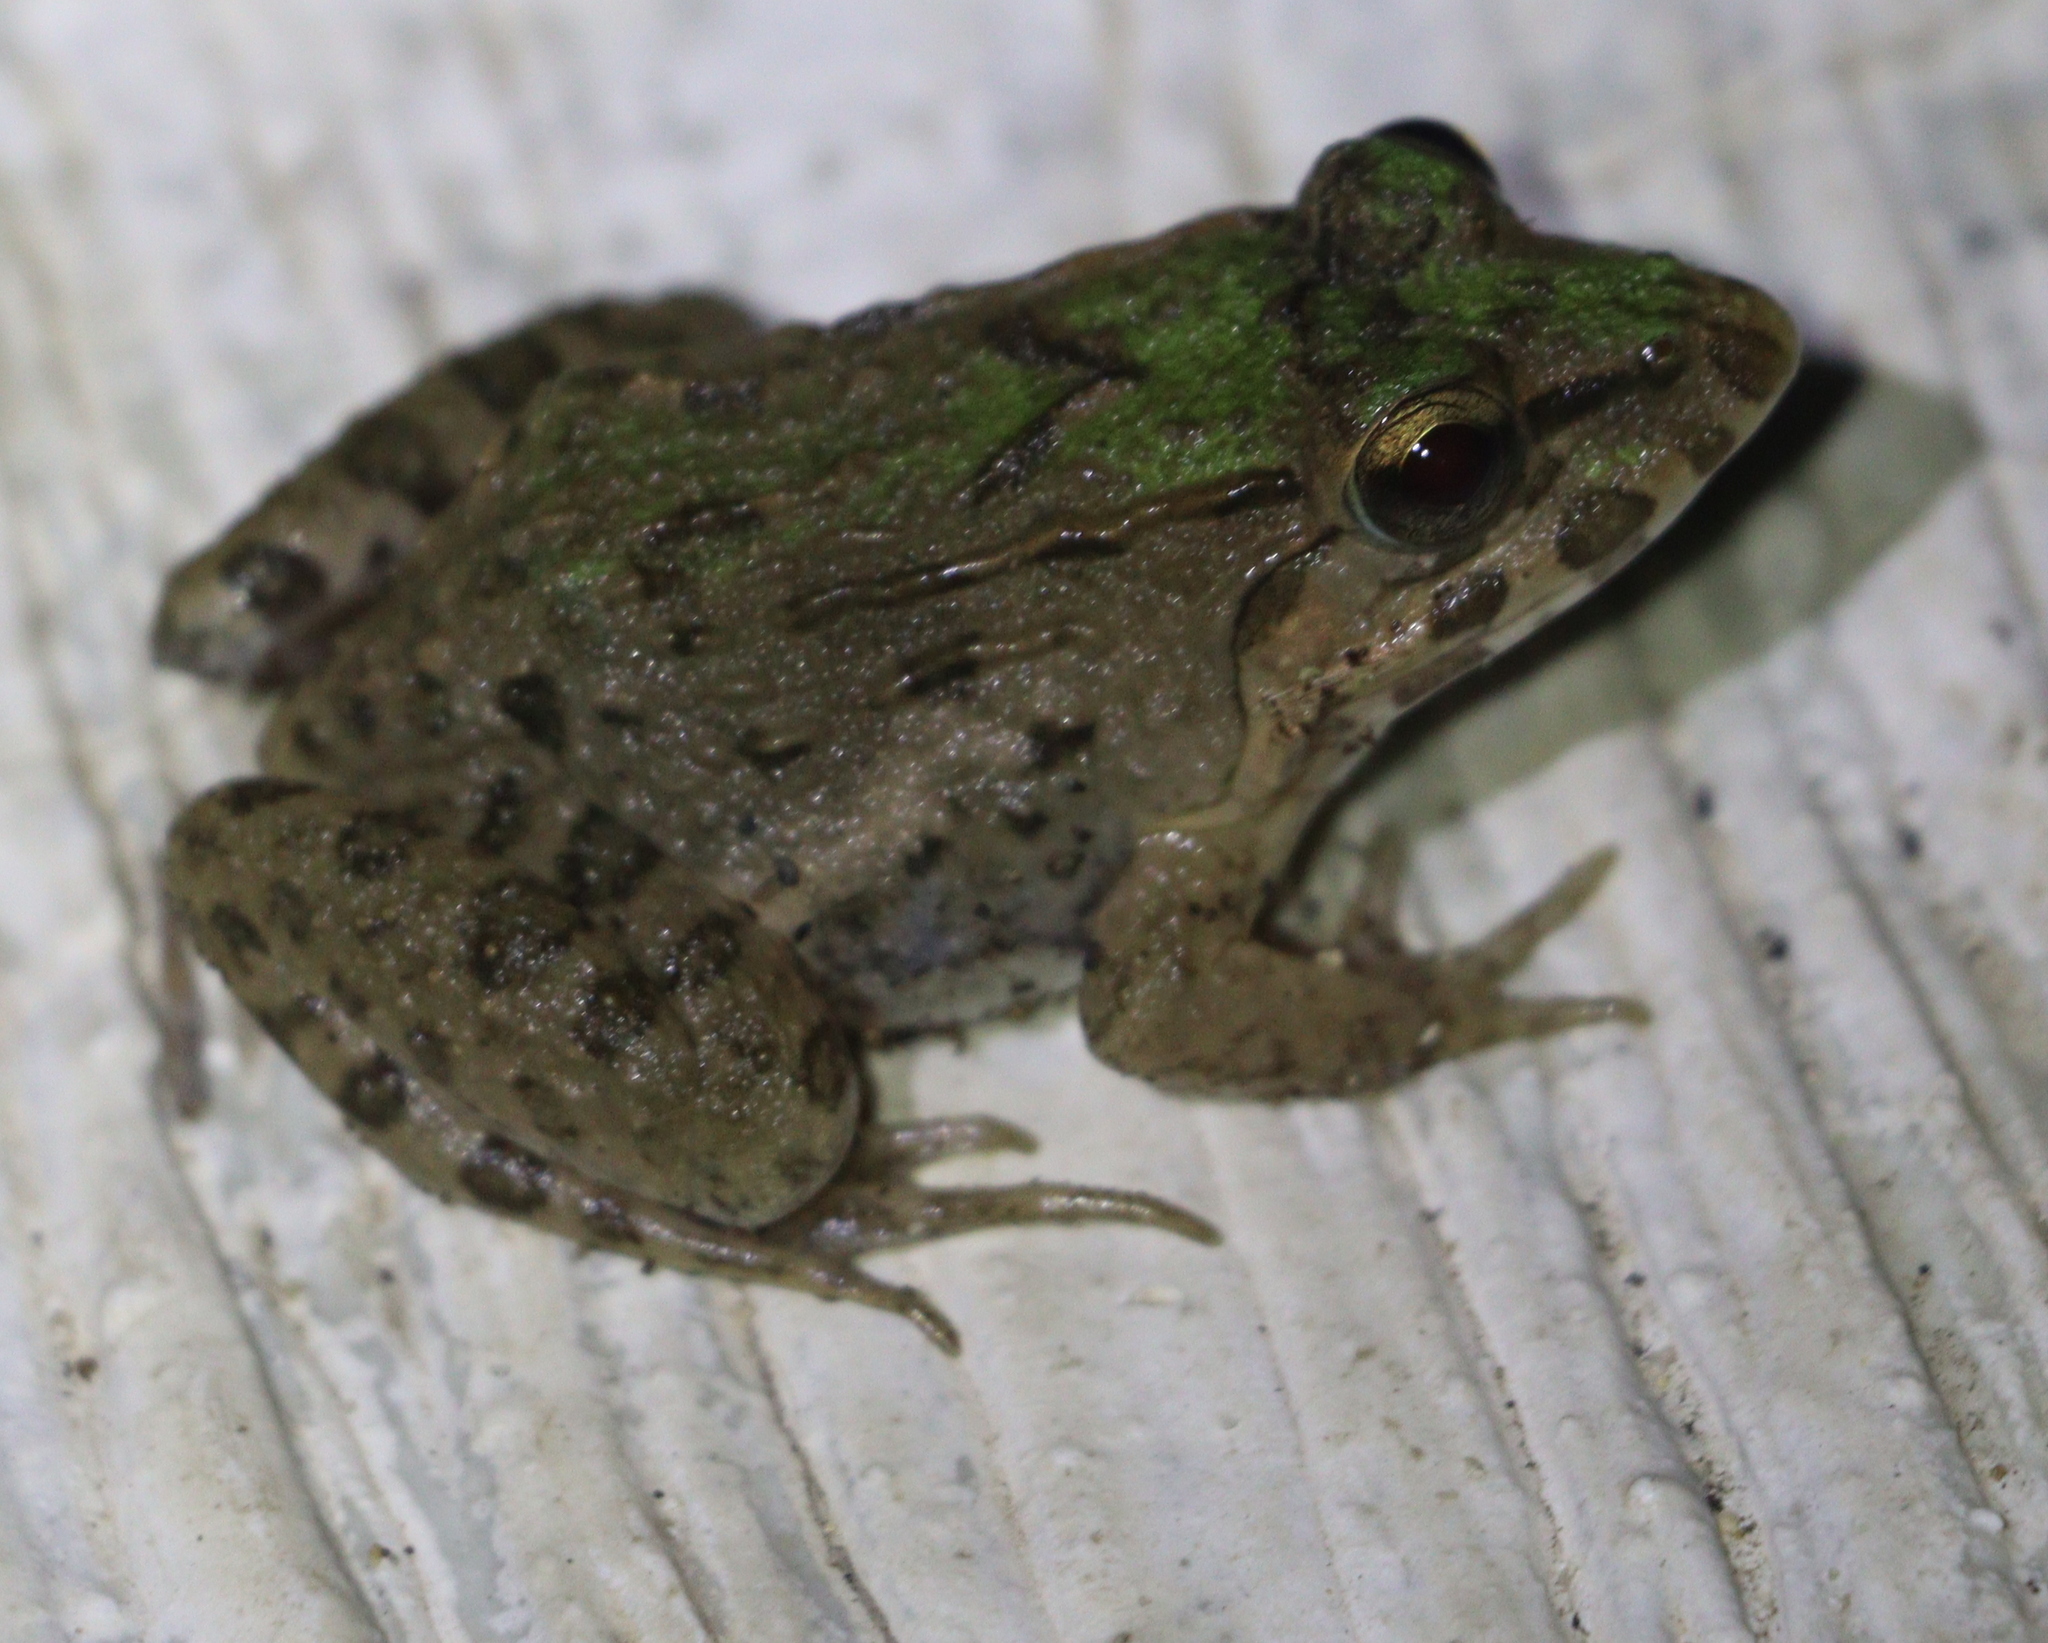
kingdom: Animalia
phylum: Chordata
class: Amphibia
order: Anura
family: Dicroglossidae
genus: Fejervarya
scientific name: Fejervarya cancrivora
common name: Crab-eating frog/mangrove frog/rice field frog/asian brackish frog
